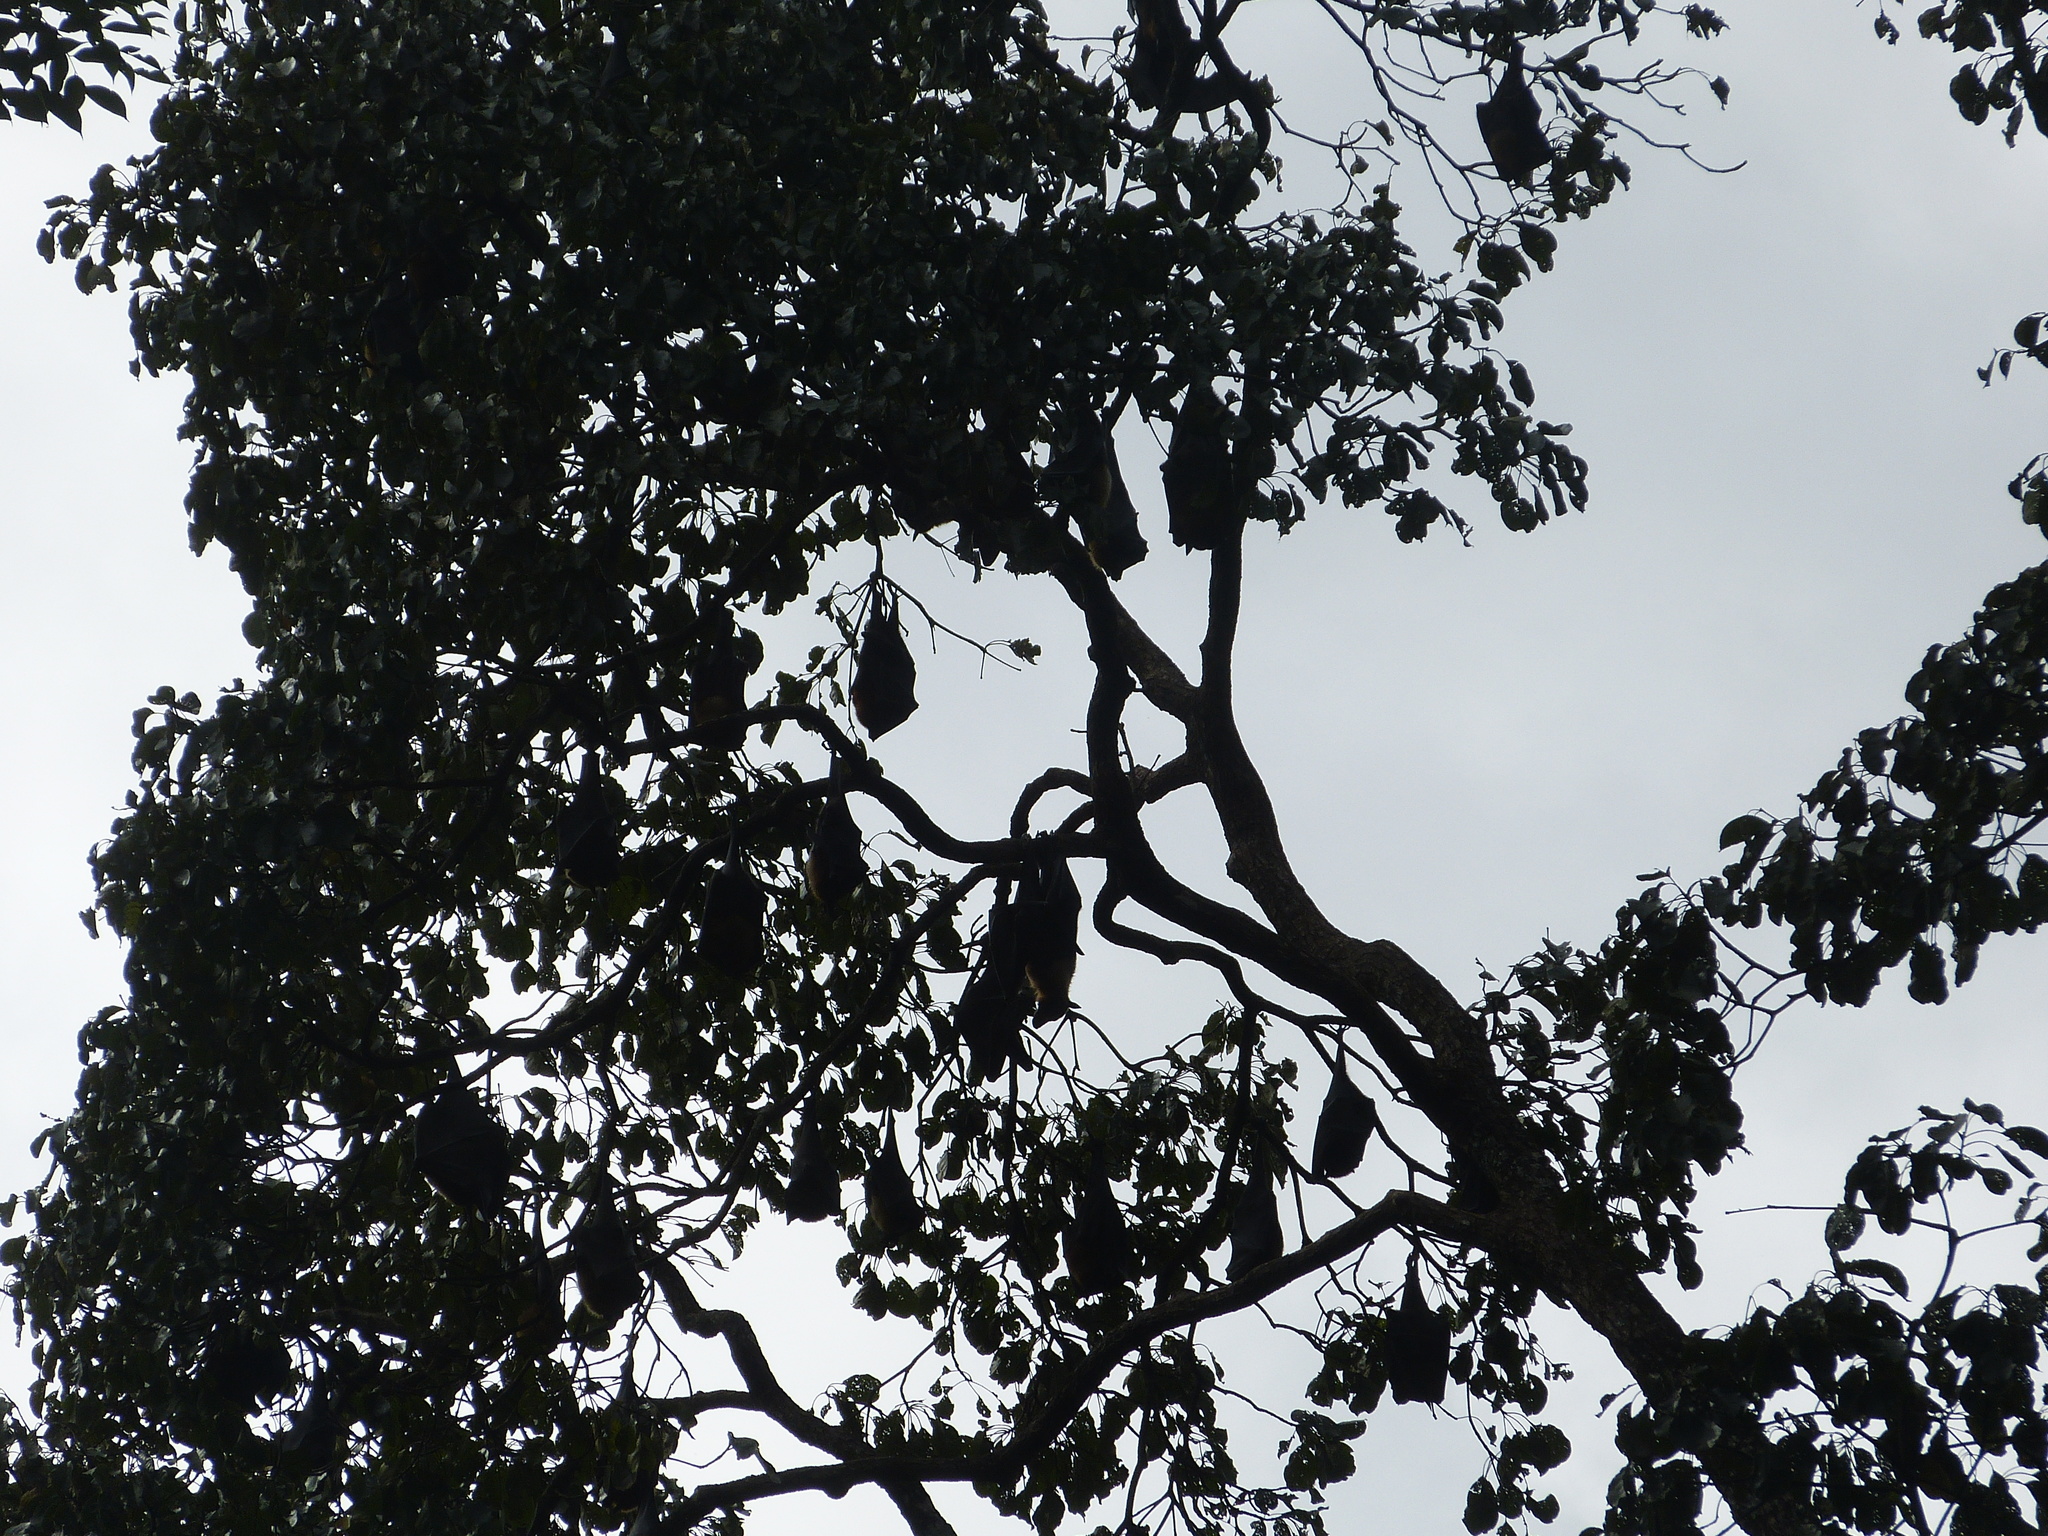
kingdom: Animalia
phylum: Chordata
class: Mammalia
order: Chiroptera
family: Pteropodidae
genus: Pteropus
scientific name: Pteropus vampyrus
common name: Large flying fox
